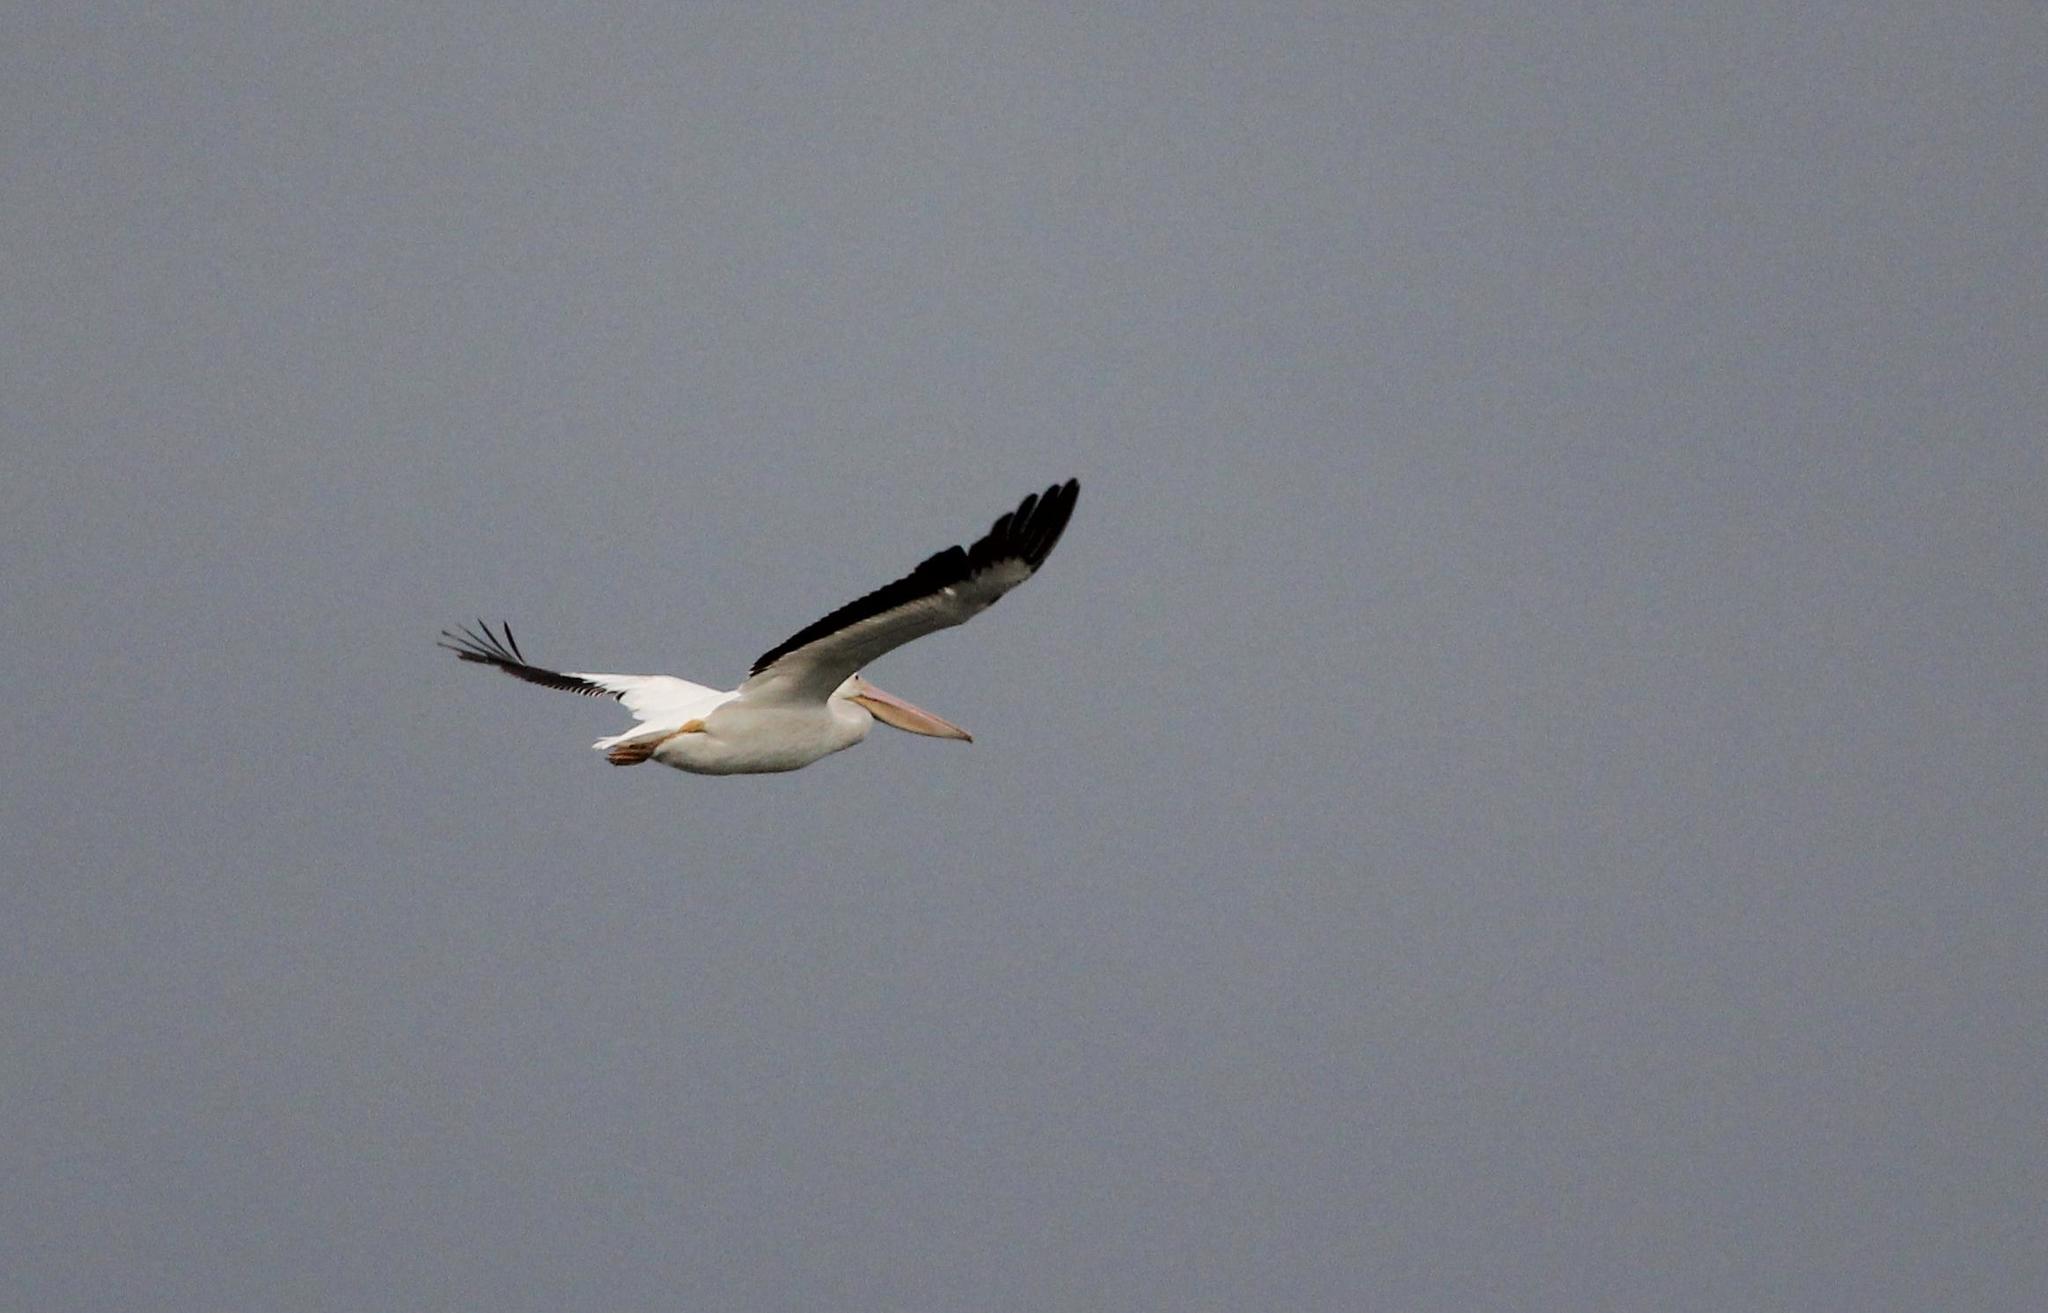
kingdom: Animalia
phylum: Chordata
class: Aves
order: Pelecaniformes
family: Pelecanidae
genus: Pelecanus
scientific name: Pelecanus erythrorhynchos
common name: American white pelican
